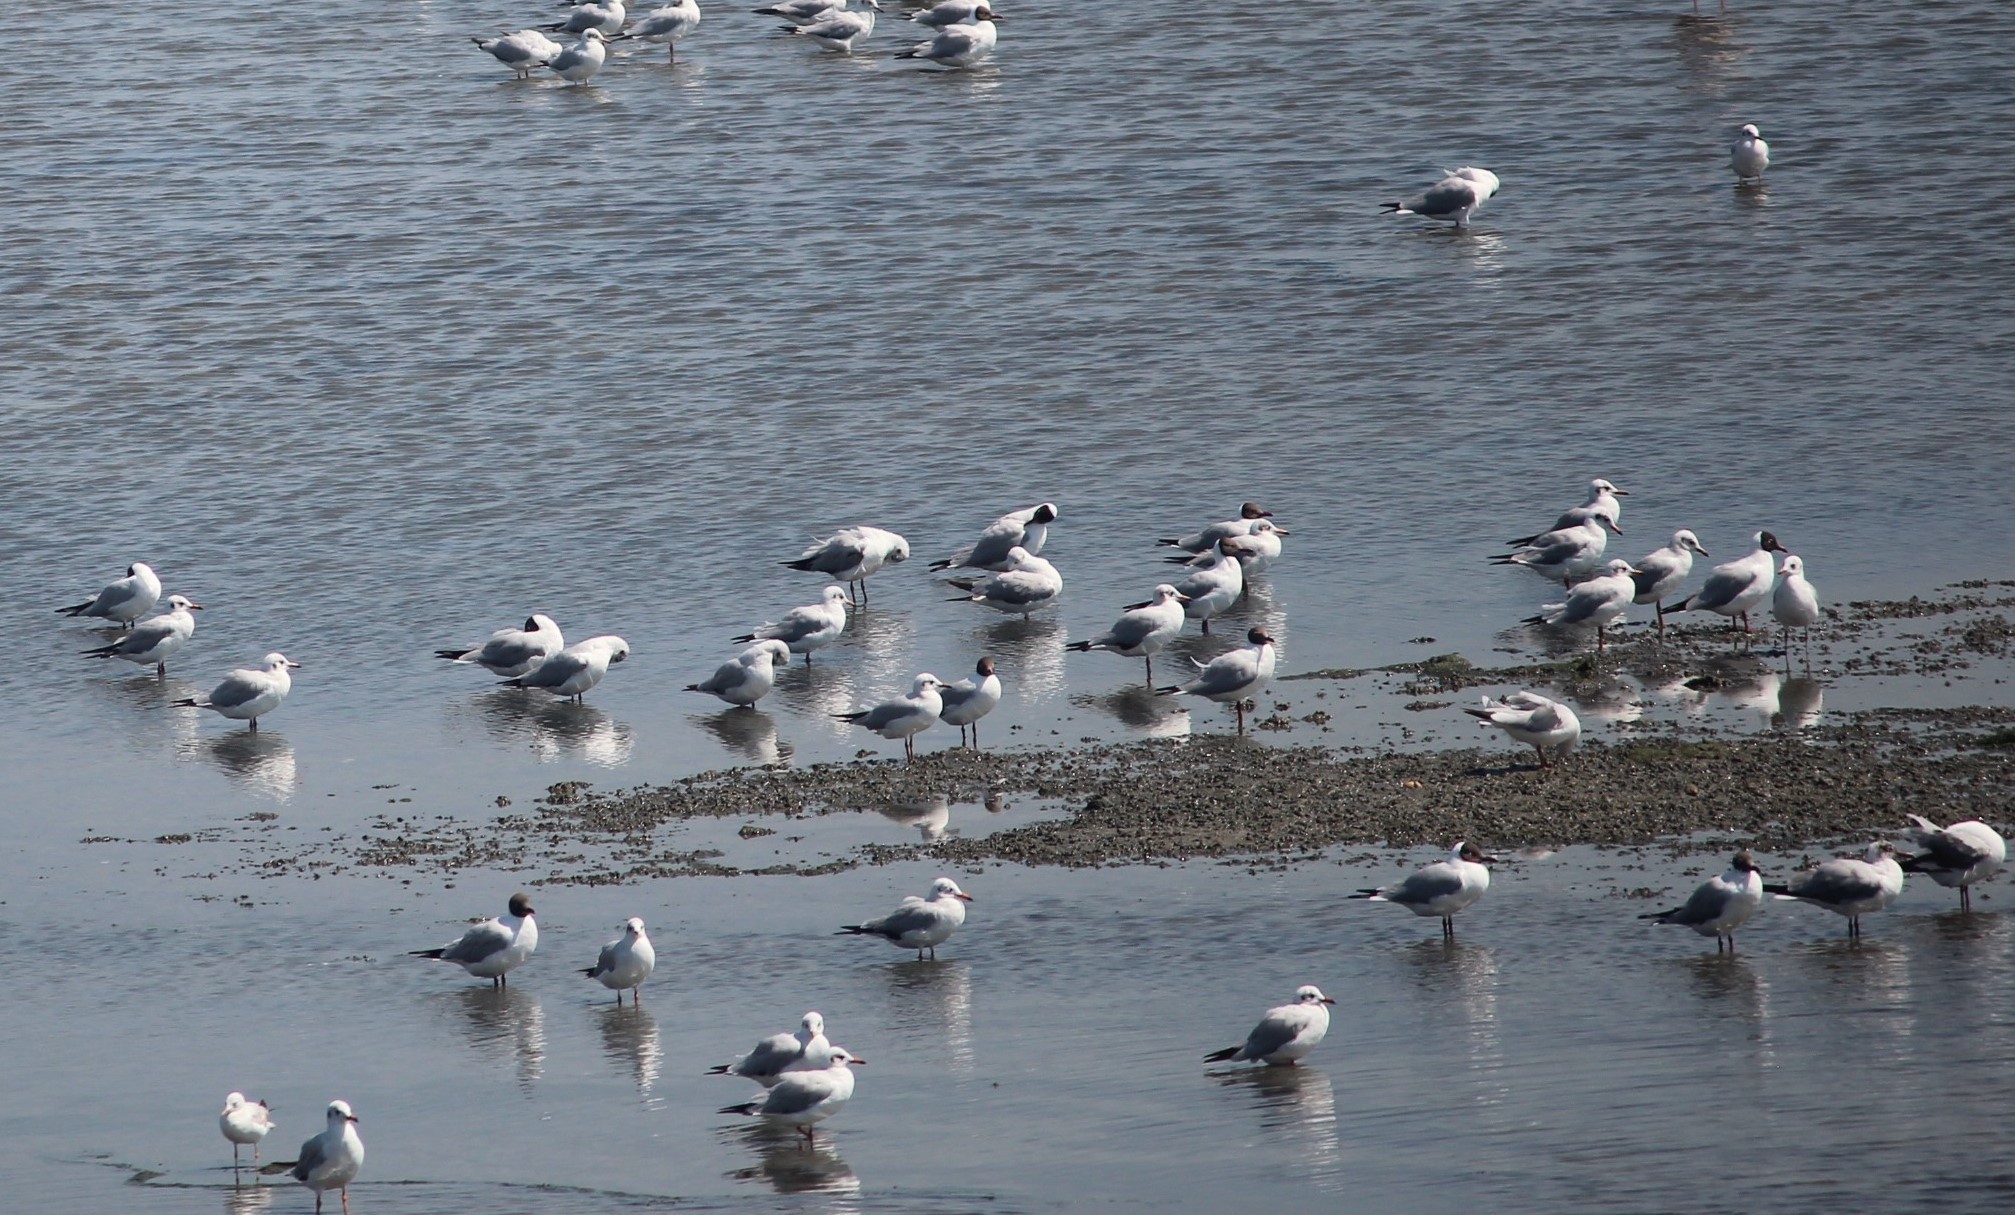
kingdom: Animalia
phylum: Chordata
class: Aves
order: Charadriiformes
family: Laridae
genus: Chroicocephalus
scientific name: Chroicocephalus brunnicephalus
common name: Brown-headed gull
